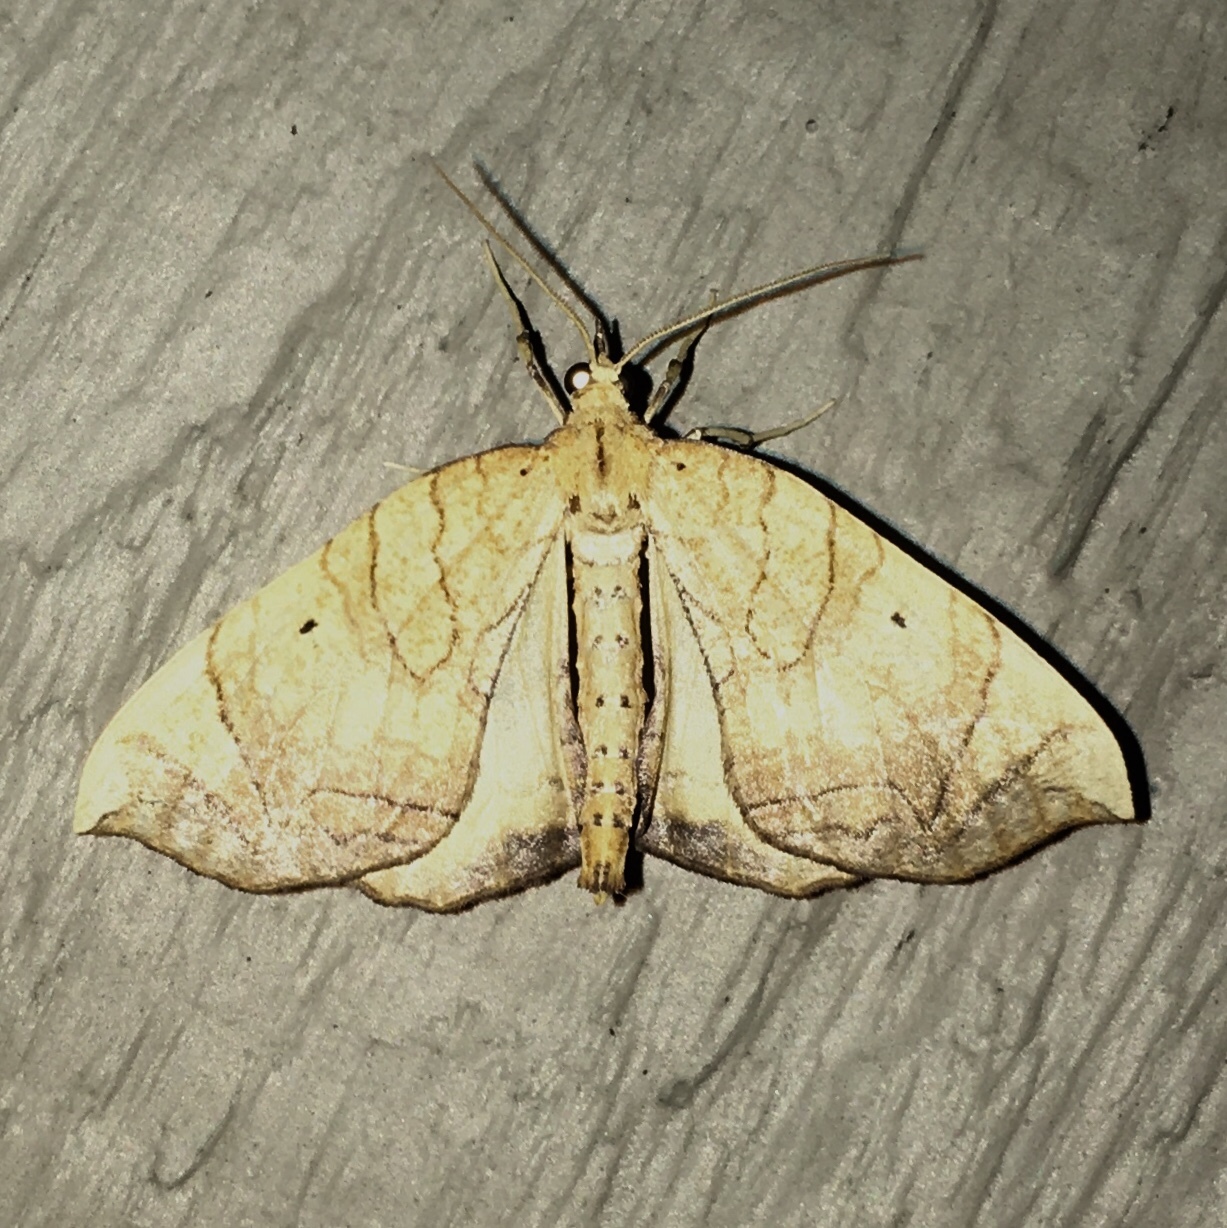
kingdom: Animalia
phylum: Arthropoda
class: Insecta
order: Lepidoptera
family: Geometridae
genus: Eulithis
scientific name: Eulithis
